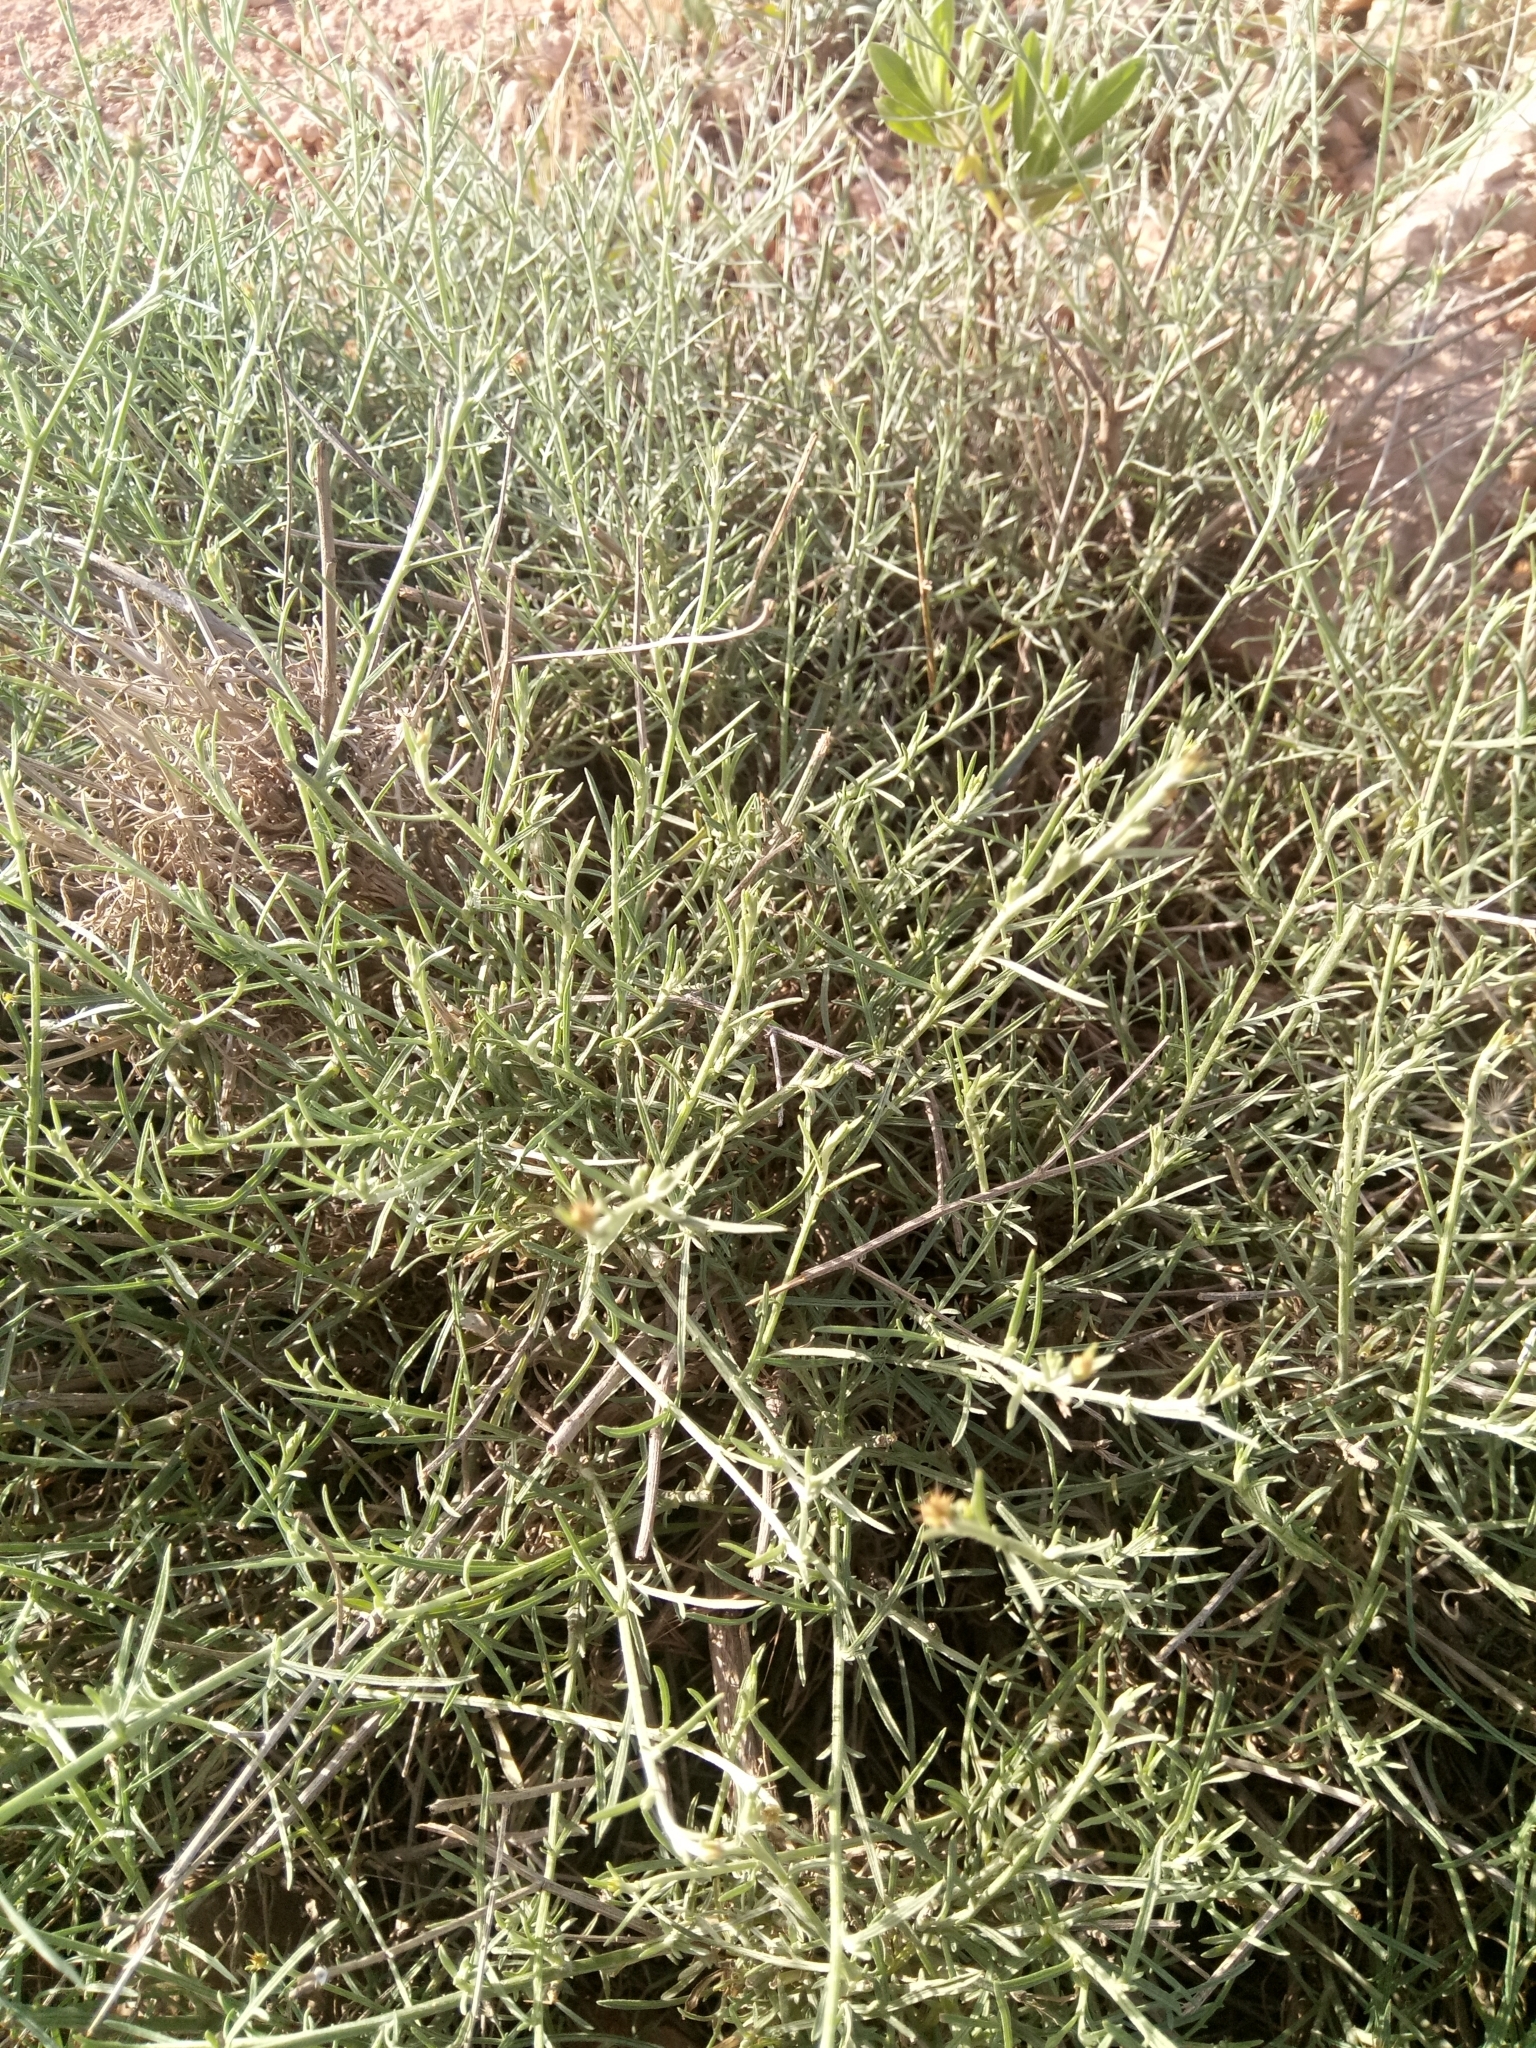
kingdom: Plantae
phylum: Tracheophyta
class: Magnoliopsida
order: Asterales
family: Asteraceae
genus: Centaurea
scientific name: Centaurea parviflora
